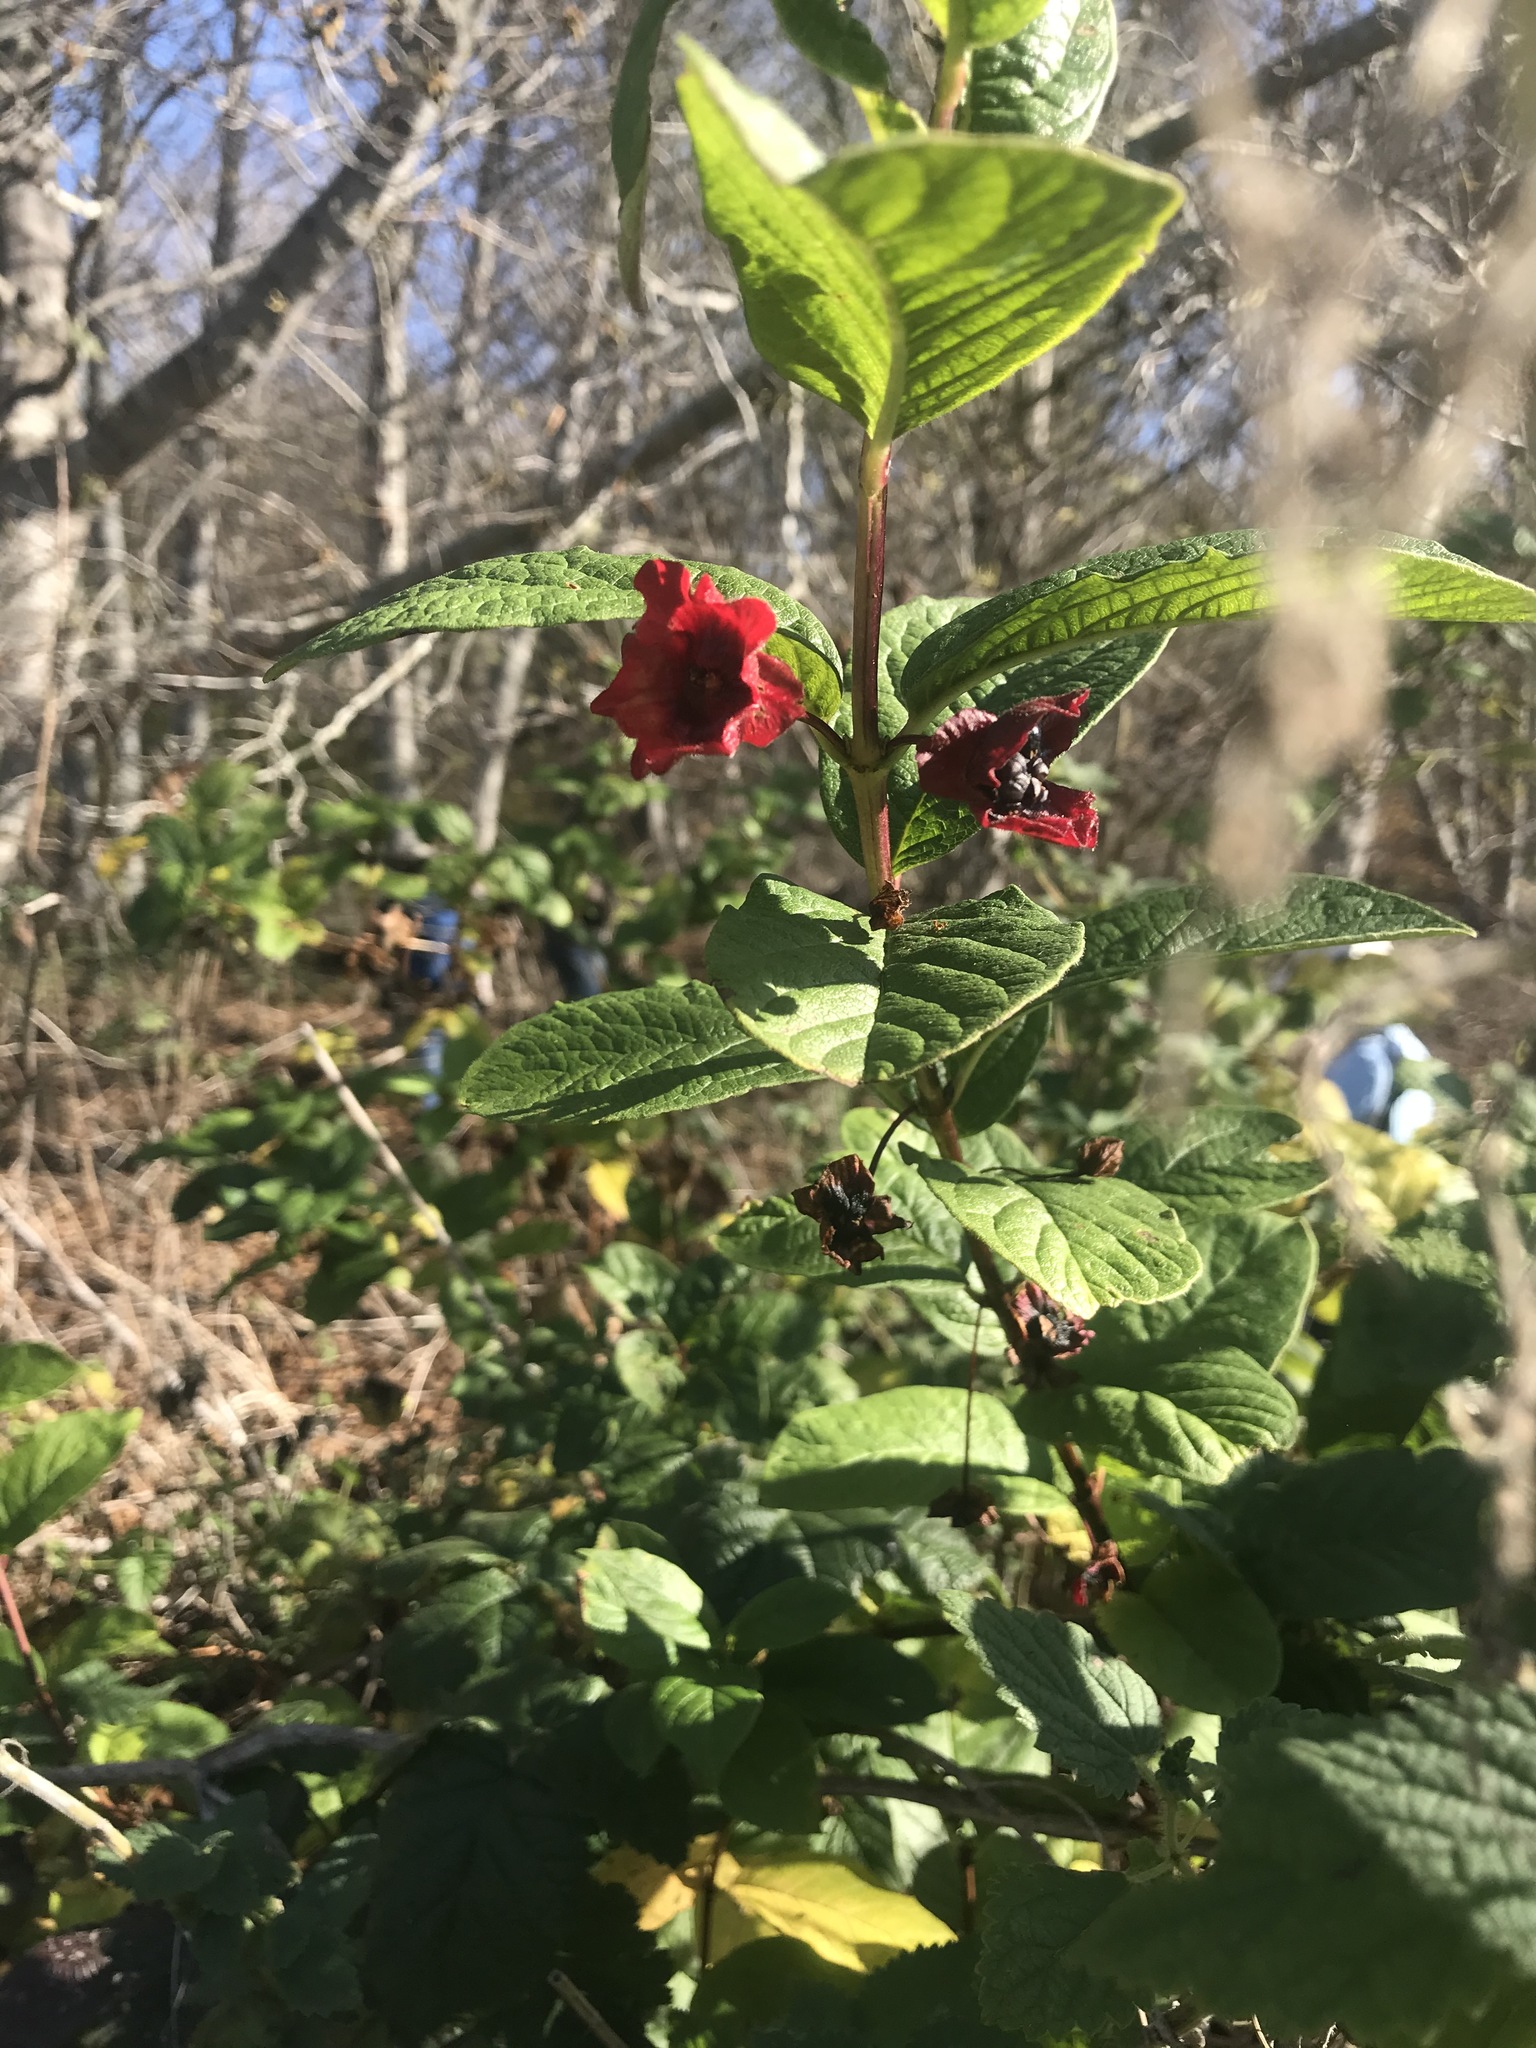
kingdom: Plantae
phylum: Tracheophyta
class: Magnoliopsida
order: Dipsacales
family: Caprifoliaceae
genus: Lonicera
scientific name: Lonicera involucrata
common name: Californian honeysuckle
